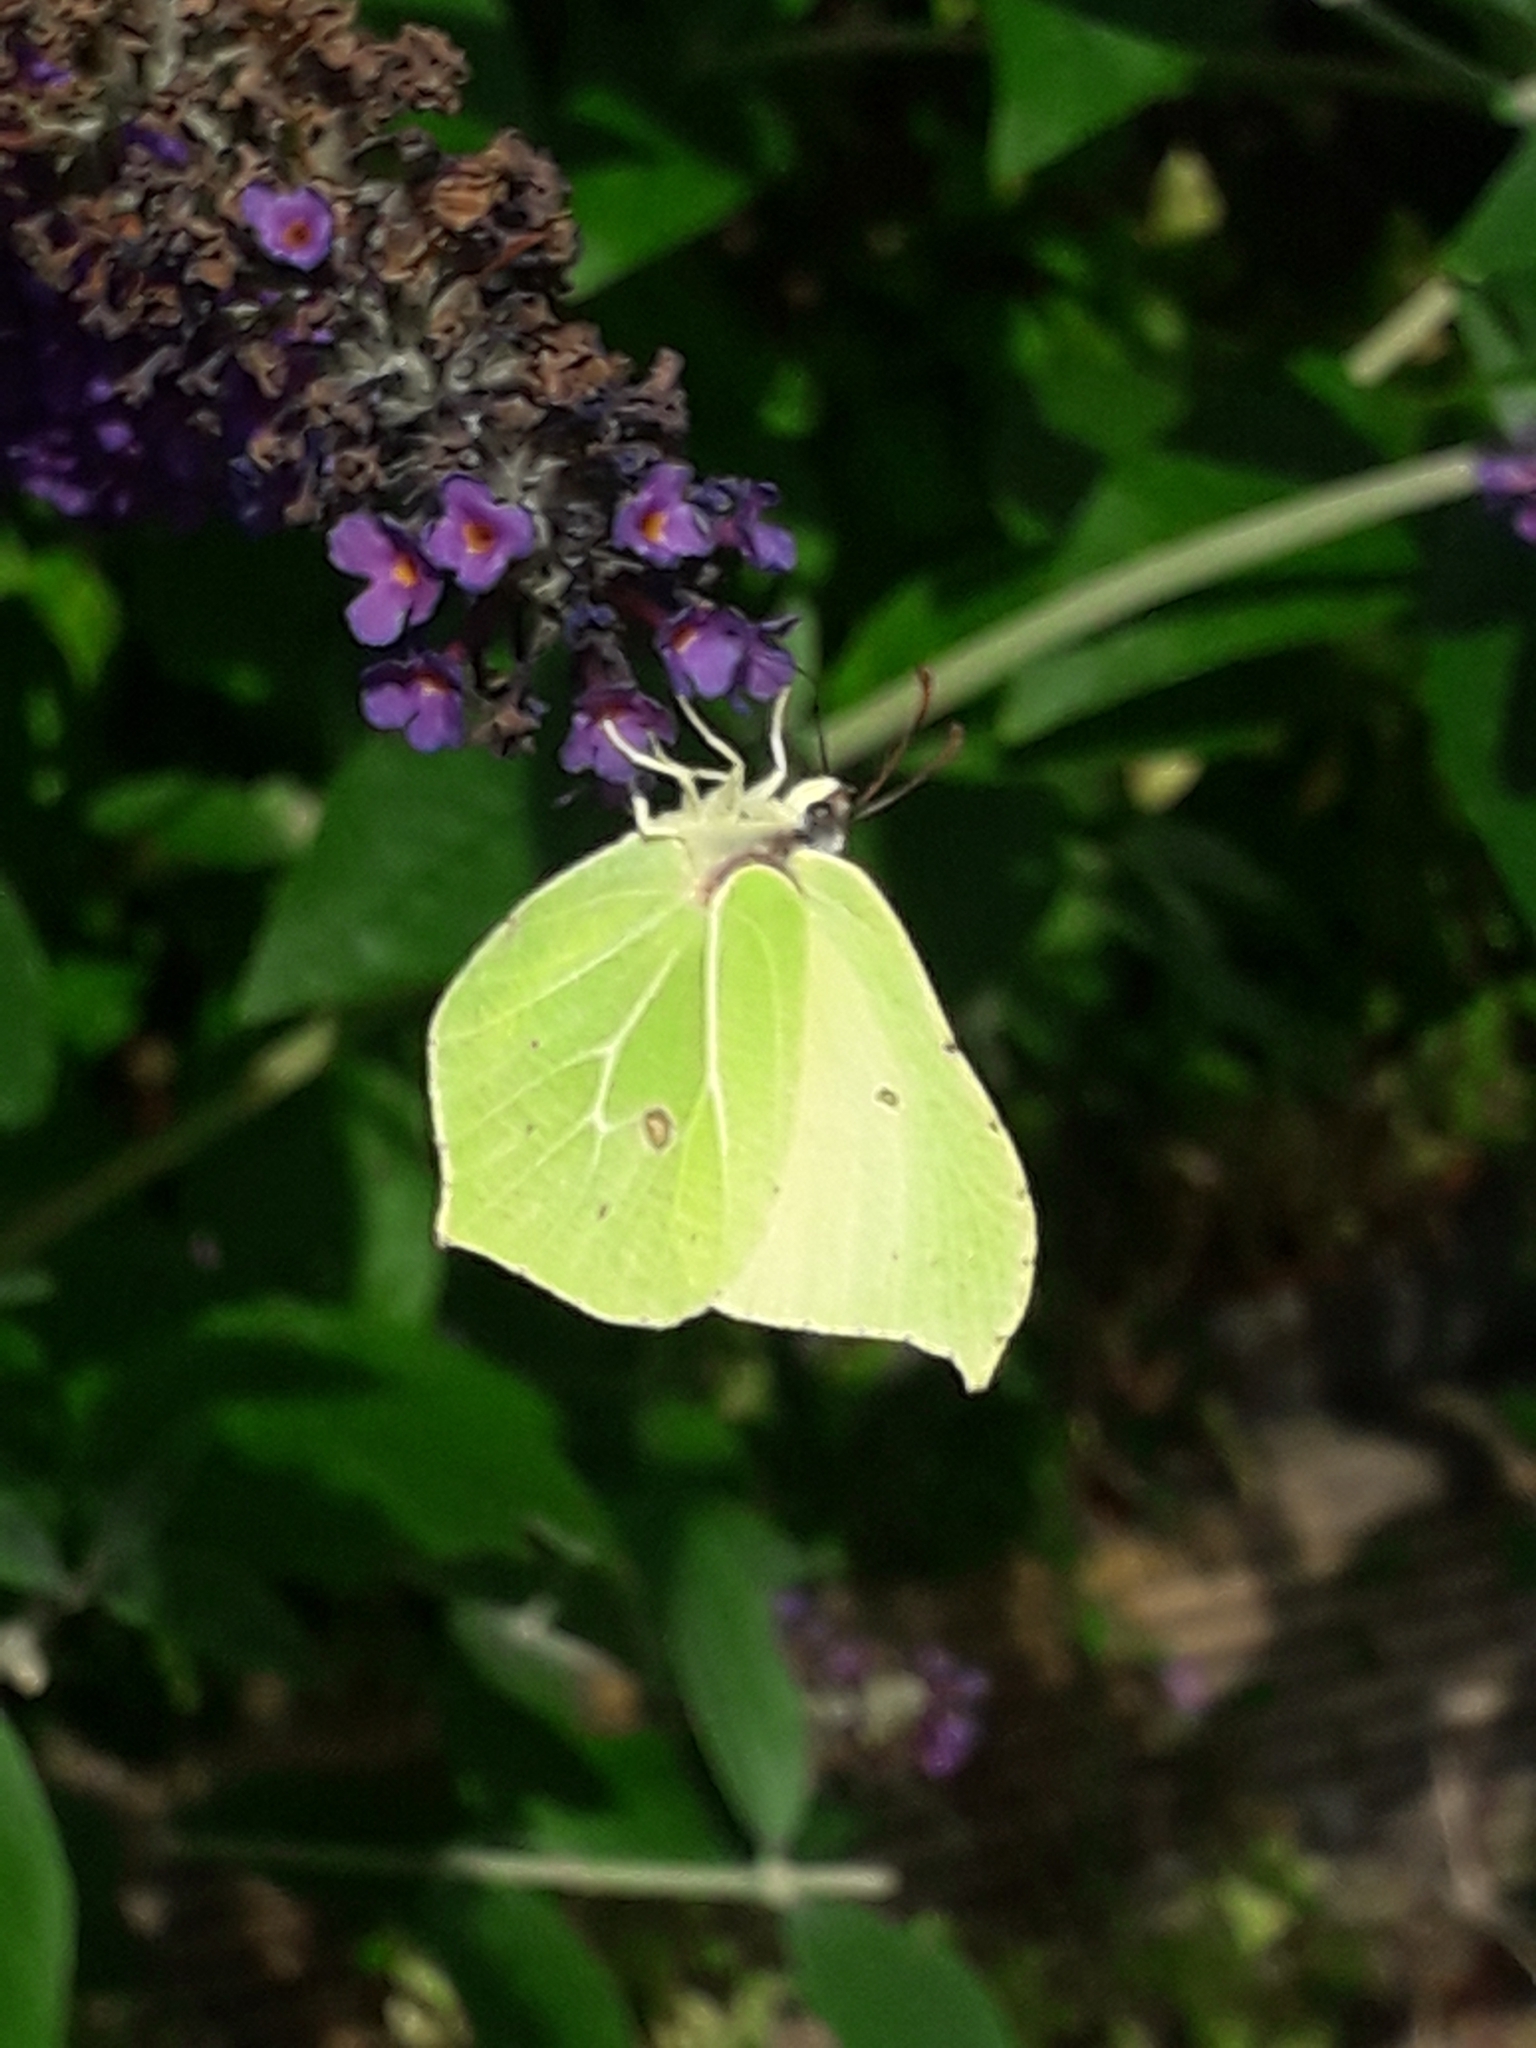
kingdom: Animalia
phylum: Arthropoda
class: Insecta
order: Lepidoptera
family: Pieridae
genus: Gonepteryx
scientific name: Gonepteryx rhamni
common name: Brimstone
